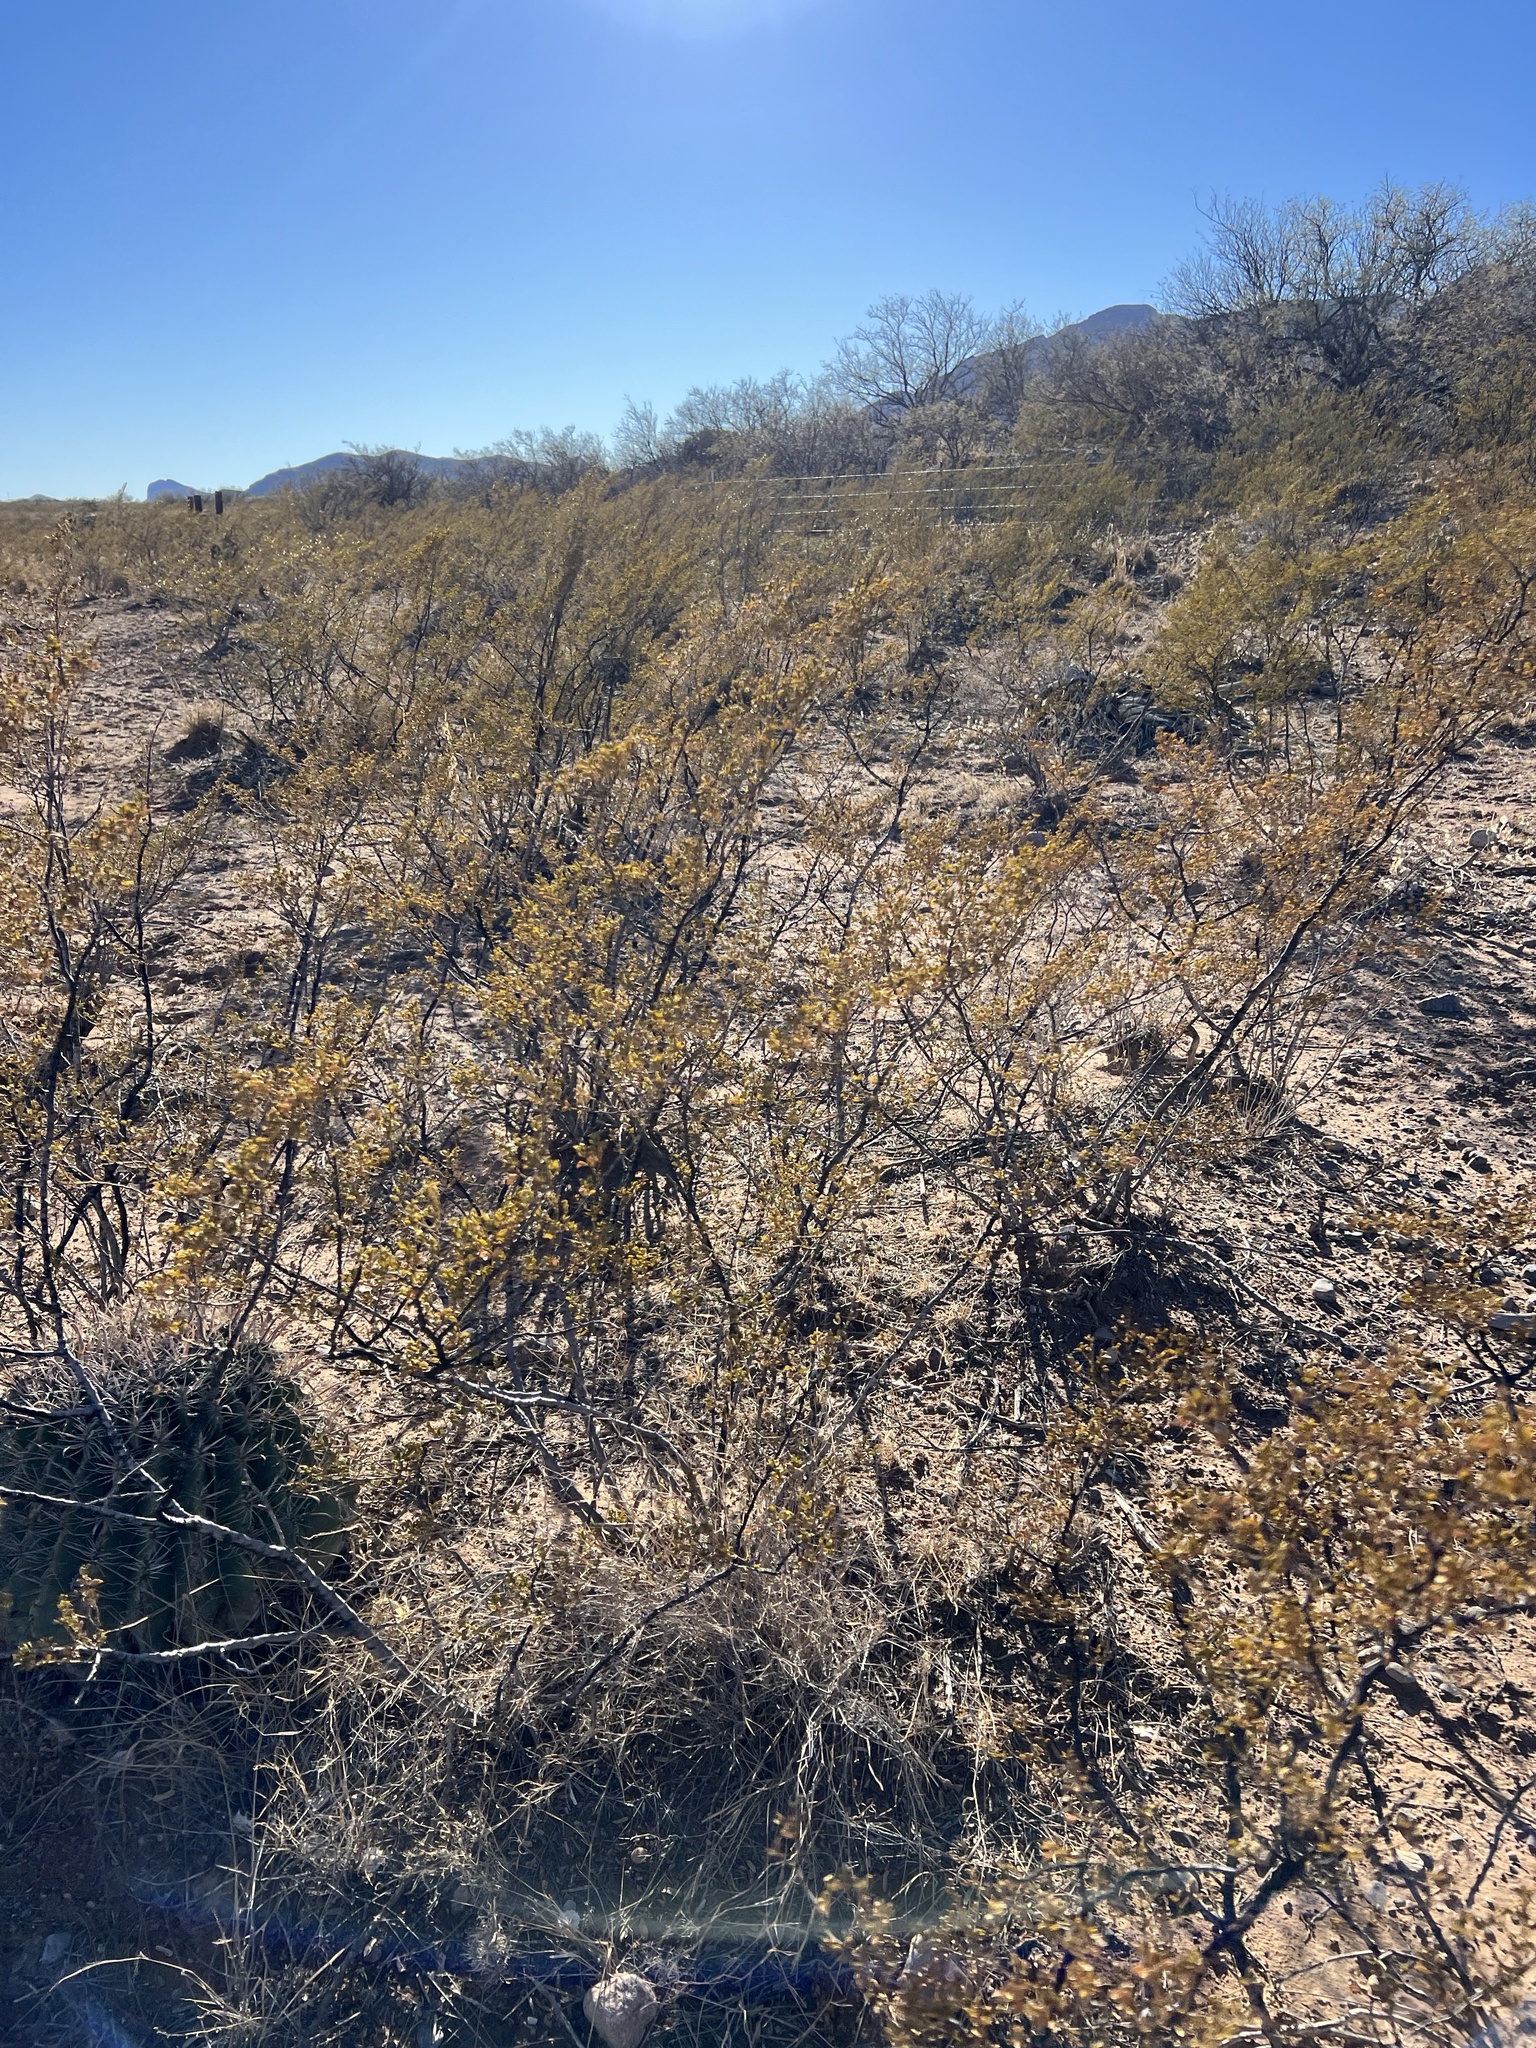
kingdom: Plantae
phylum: Tracheophyta
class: Magnoliopsida
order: Zygophyllales
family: Zygophyllaceae
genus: Larrea
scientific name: Larrea tridentata
